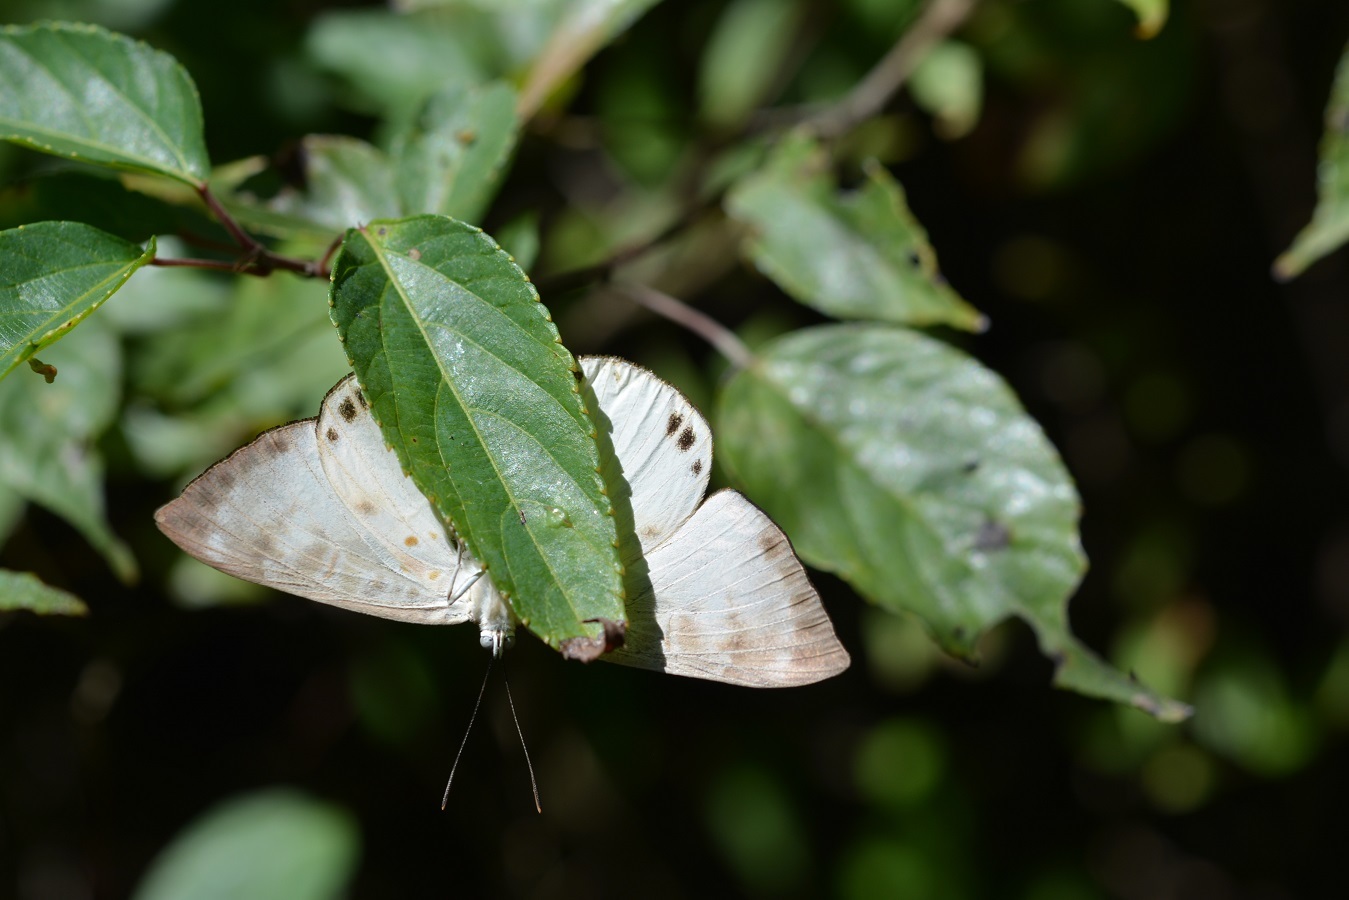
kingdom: Animalia
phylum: Arthropoda
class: Insecta
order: Lepidoptera
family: Riodinidae
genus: Synargis
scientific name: Synargis nymphidioides
